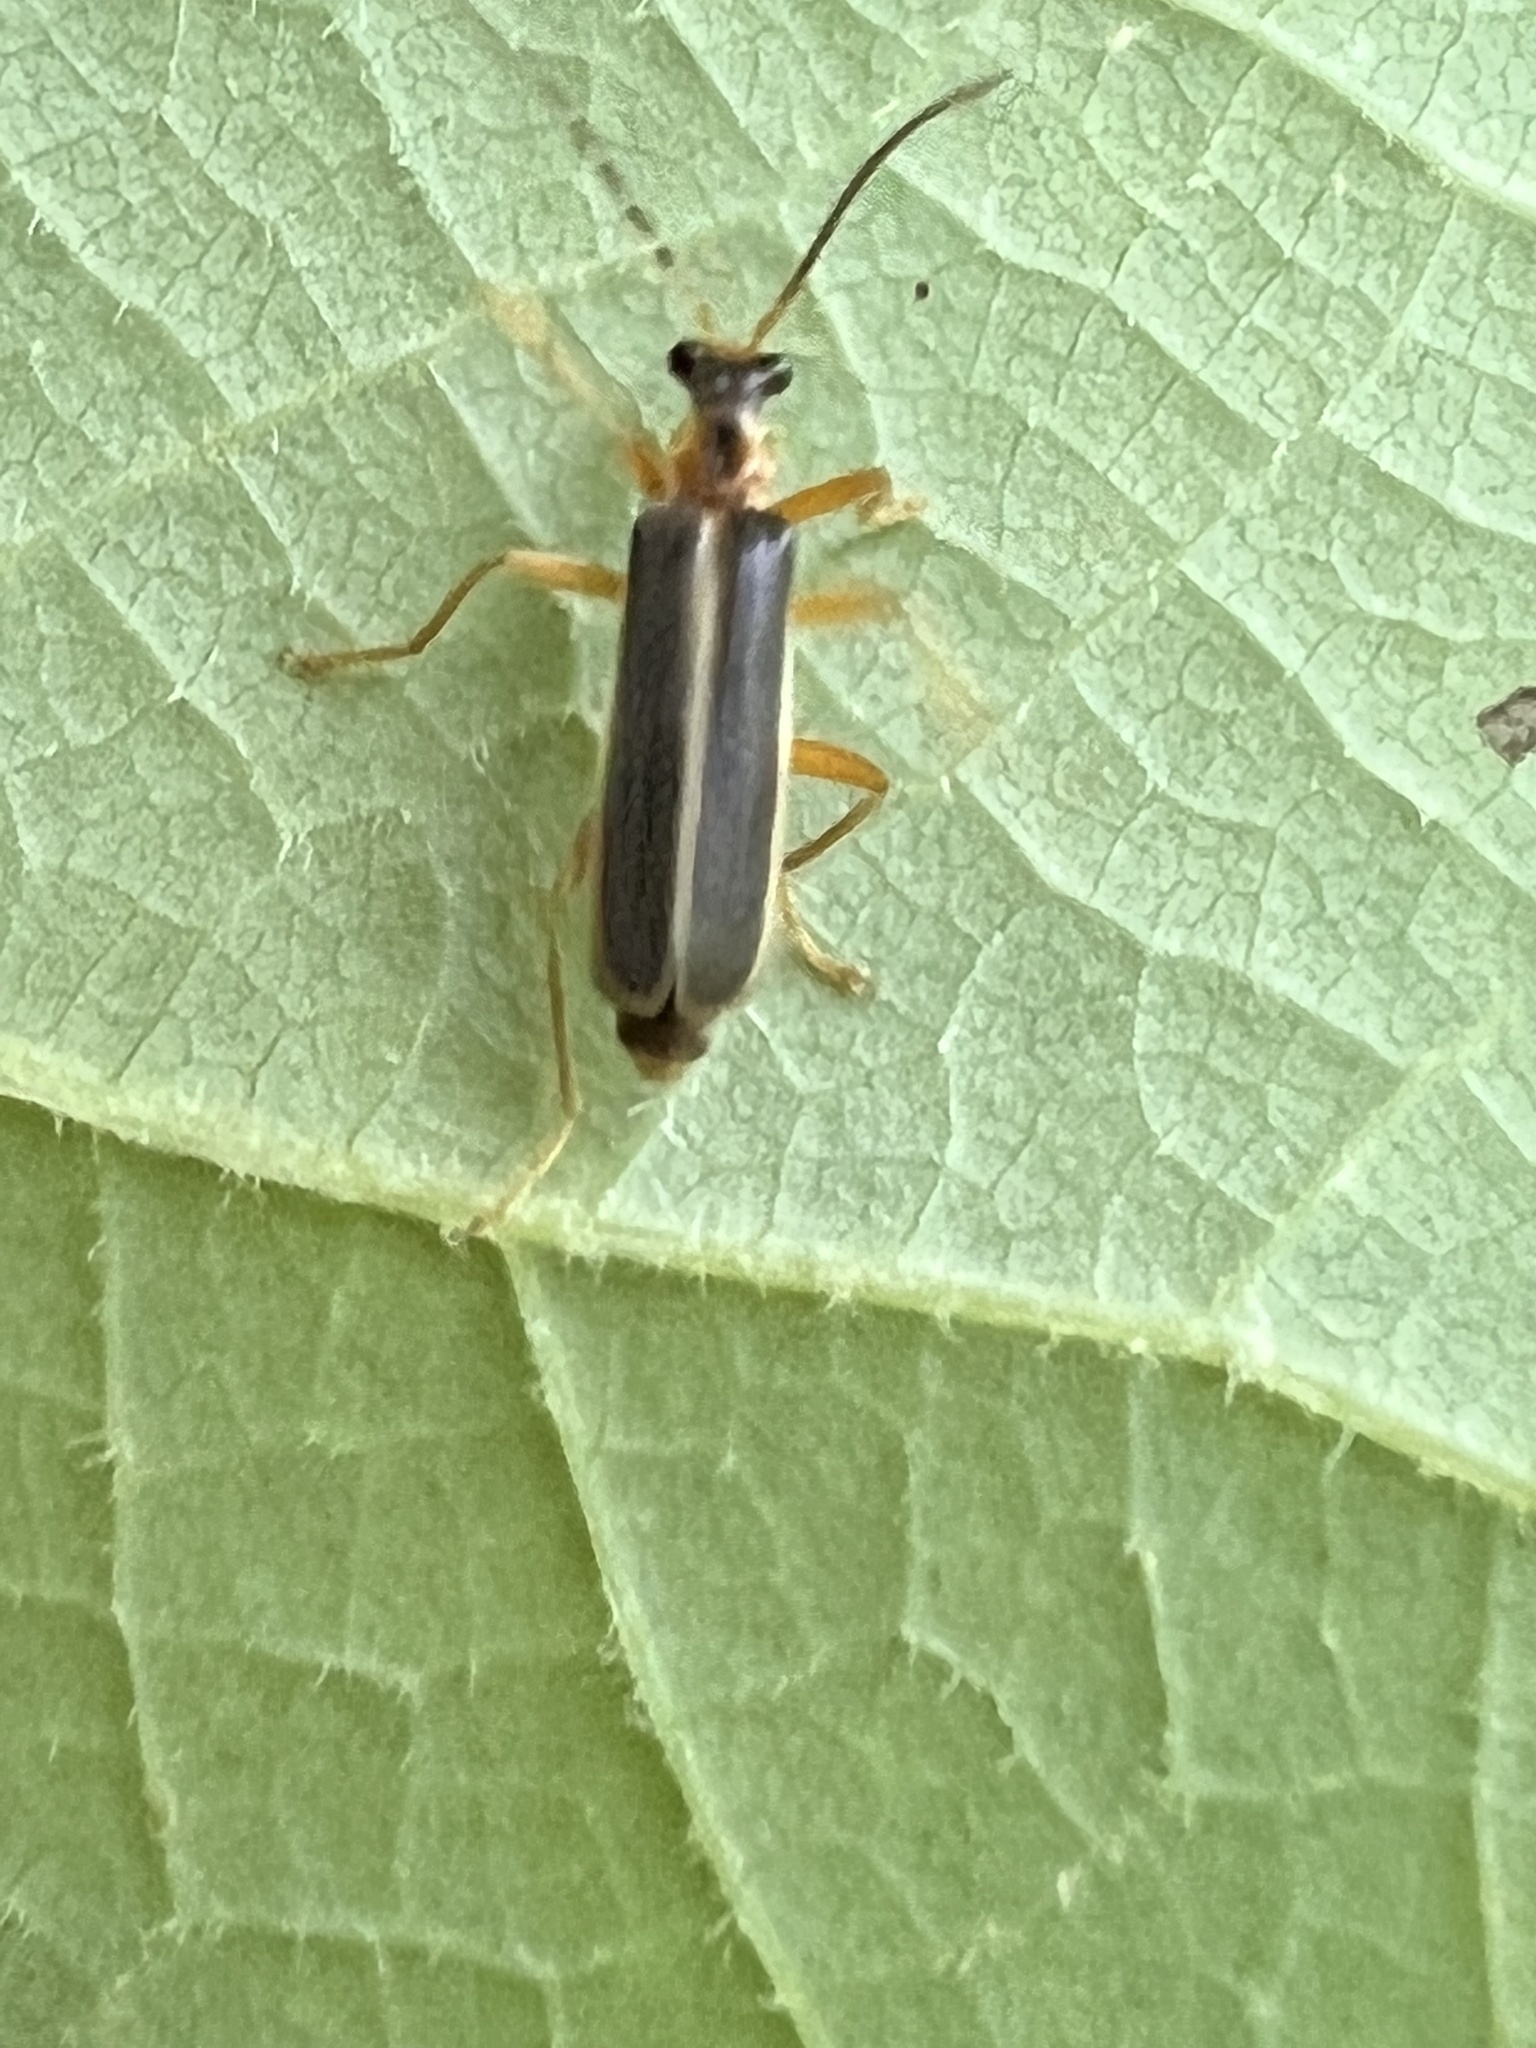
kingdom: Animalia
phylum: Arthropoda
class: Insecta
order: Coleoptera
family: Cantharidae
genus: Podabrus
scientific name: Podabrus brunnicollis
